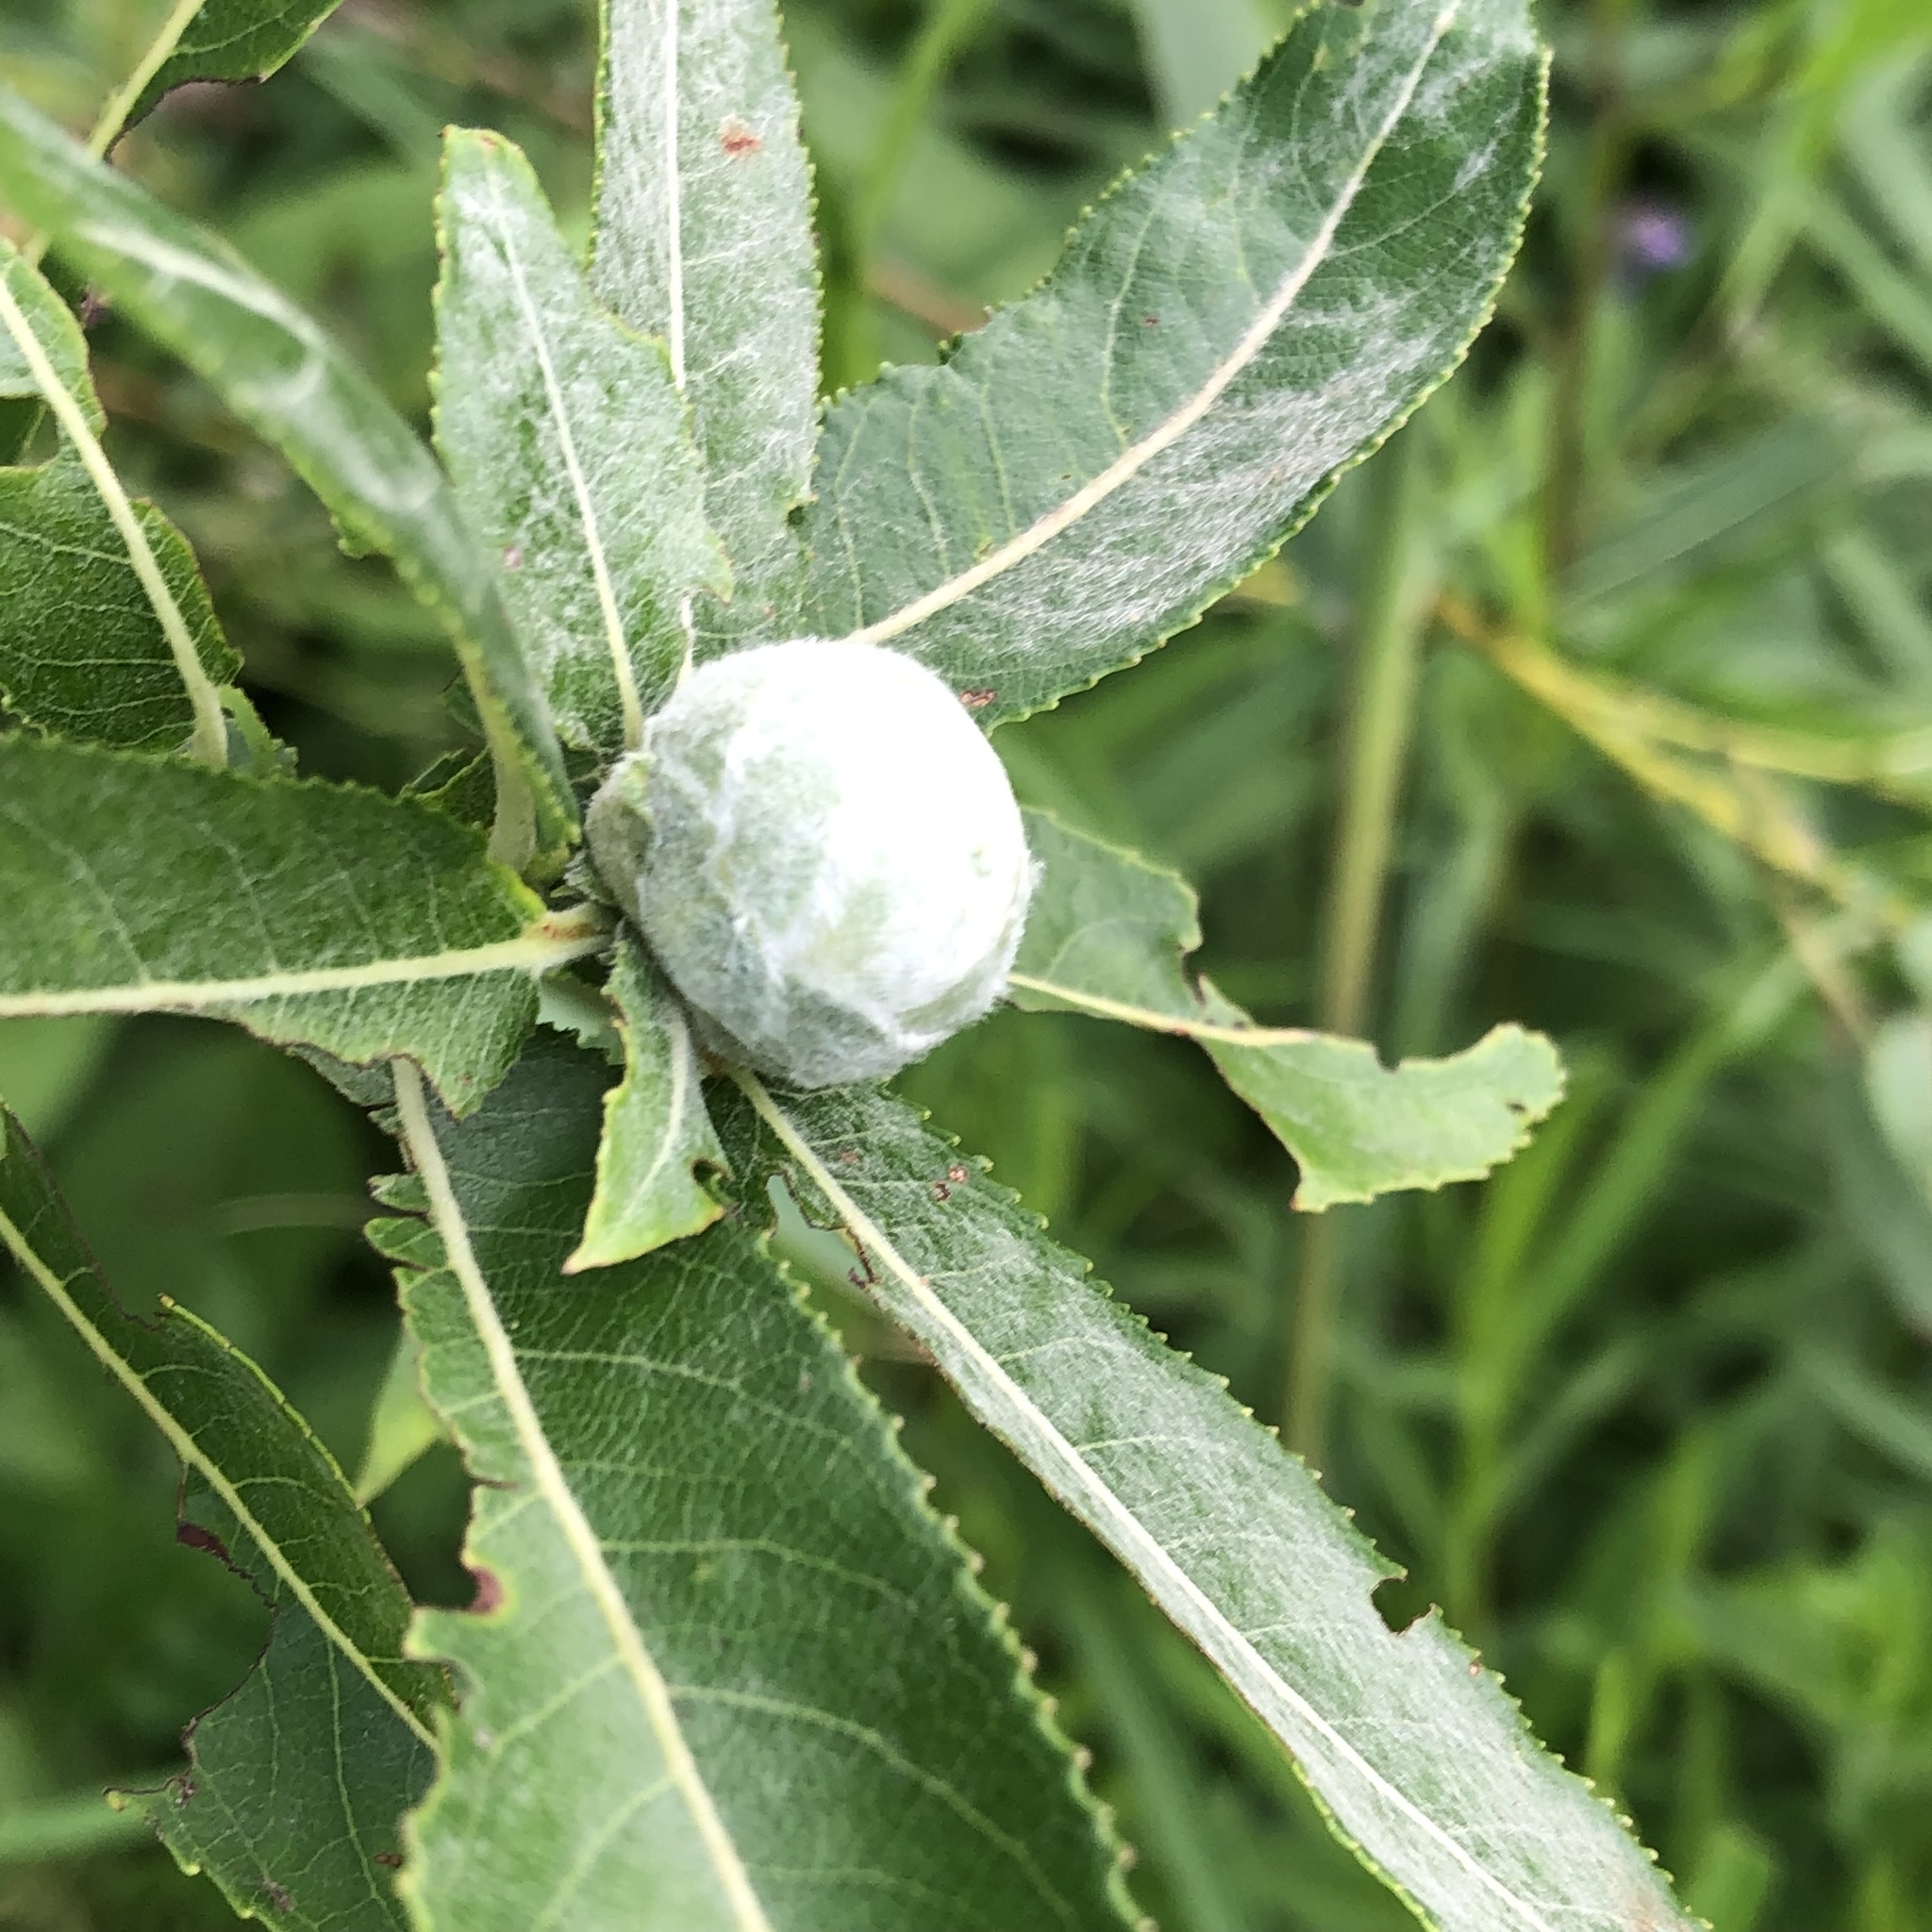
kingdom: Animalia
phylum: Arthropoda
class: Insecta
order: Diptera
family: Cecidomyiidae
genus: Rabdophaga
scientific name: Rabdophaga strobiloides
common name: Willow pinecone gall midge
